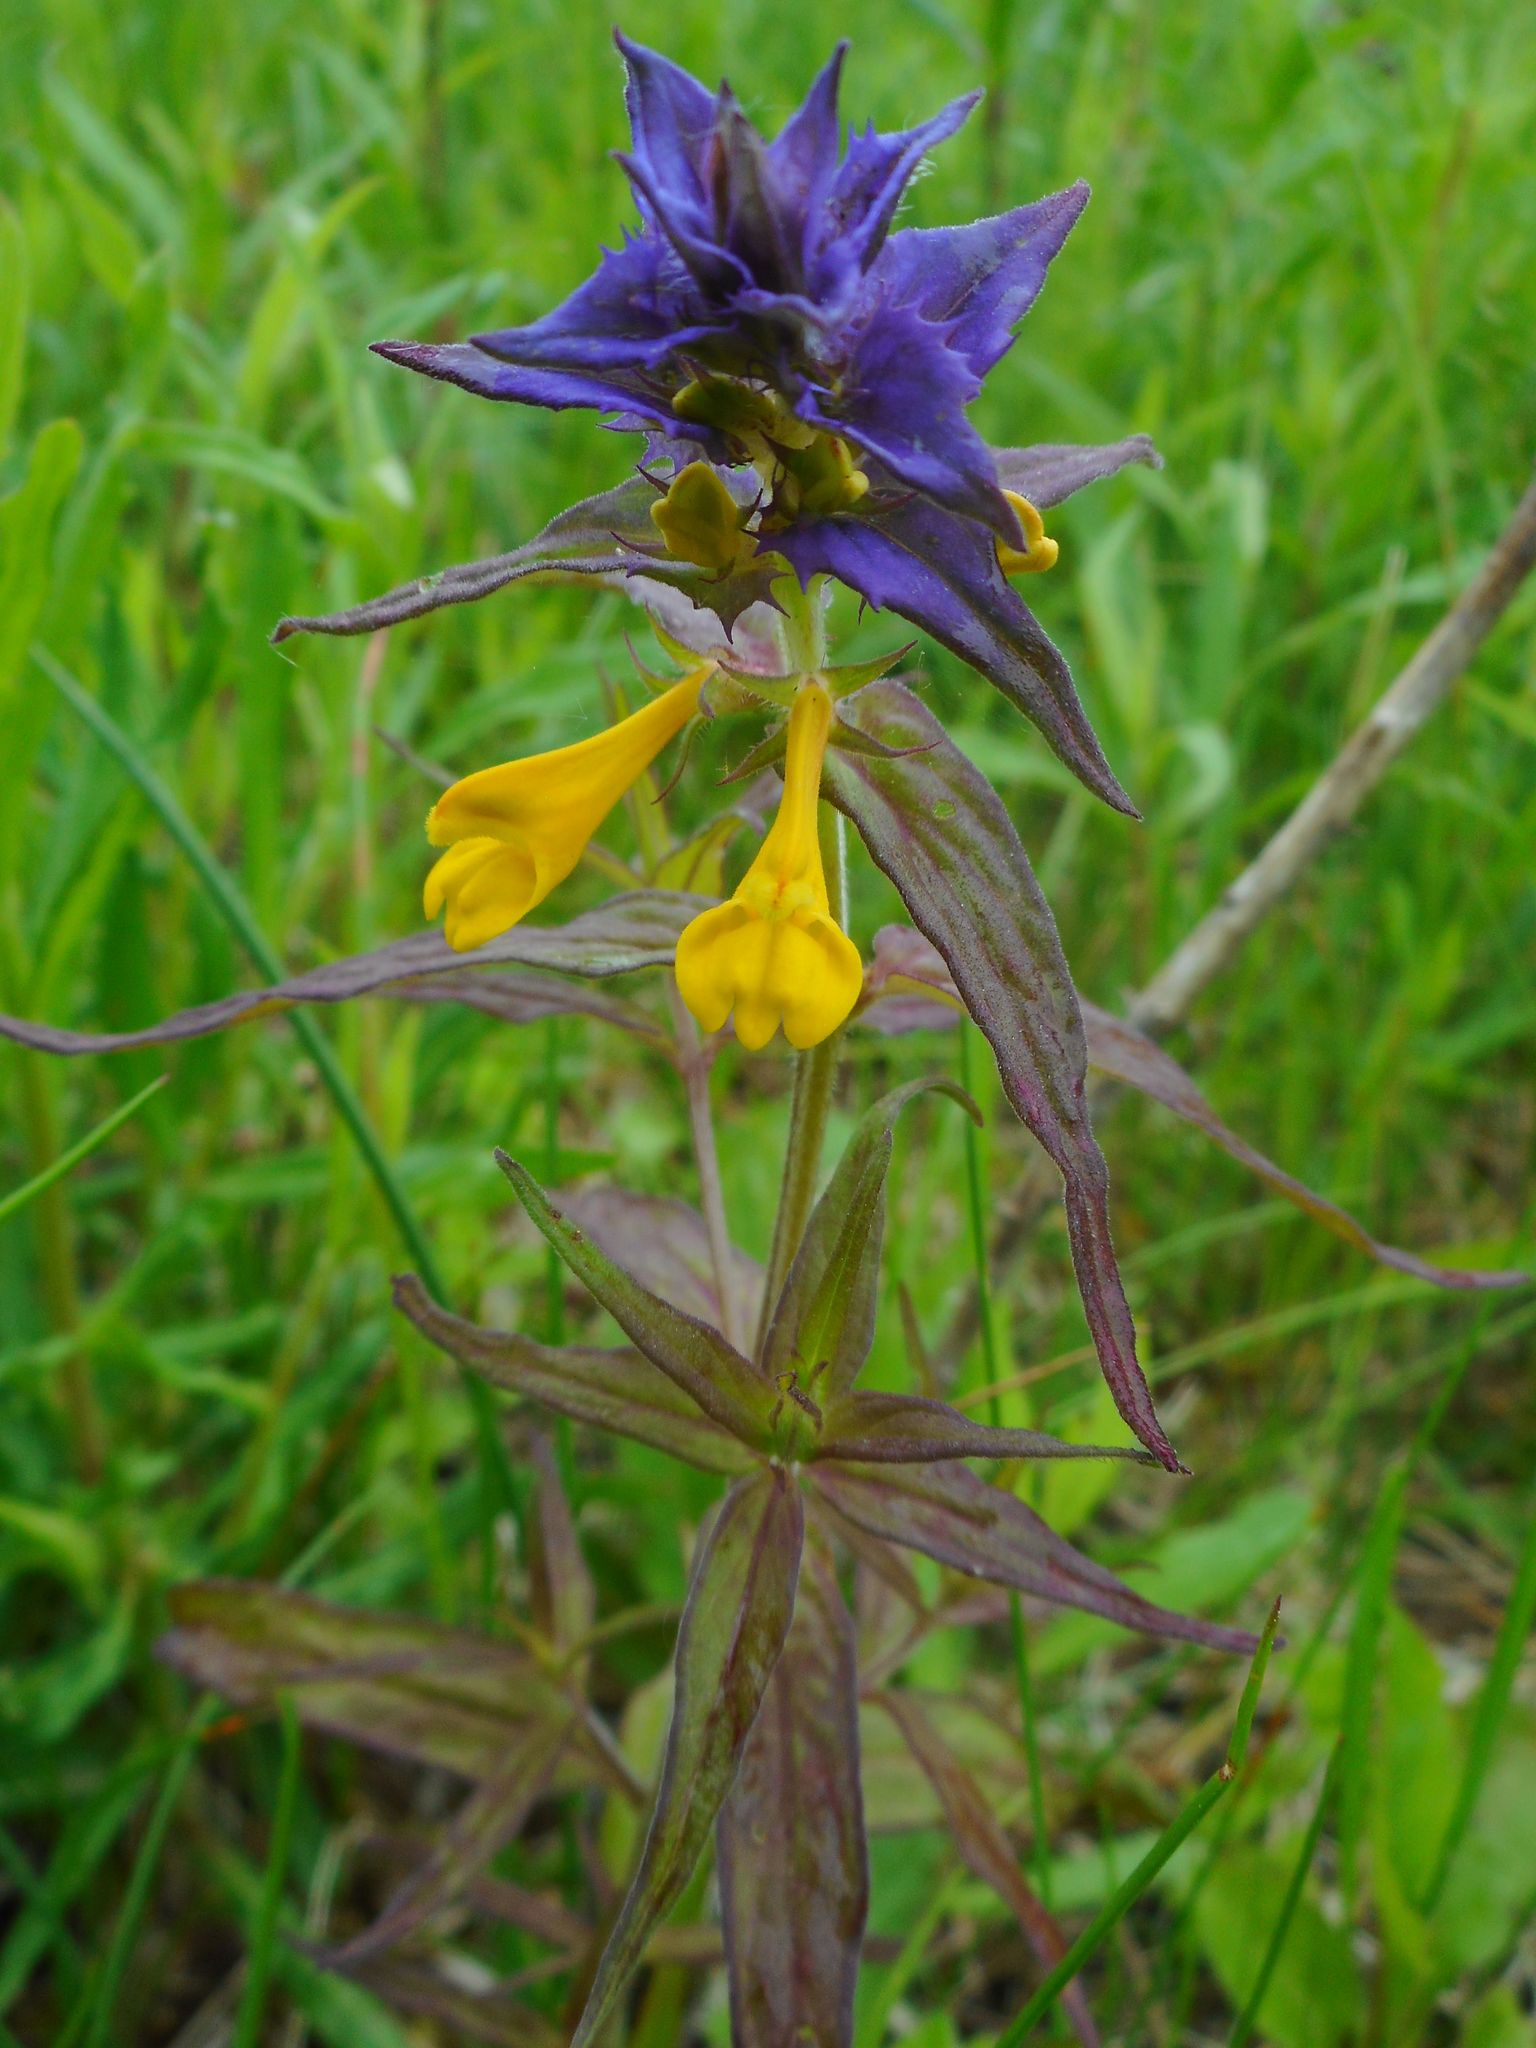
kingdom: Plantae
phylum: Tracheophyta
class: Magnoliopsida
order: Lamiales
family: Orobanchaceae
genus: Melampyrum
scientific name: Melampyrum nemorosum
